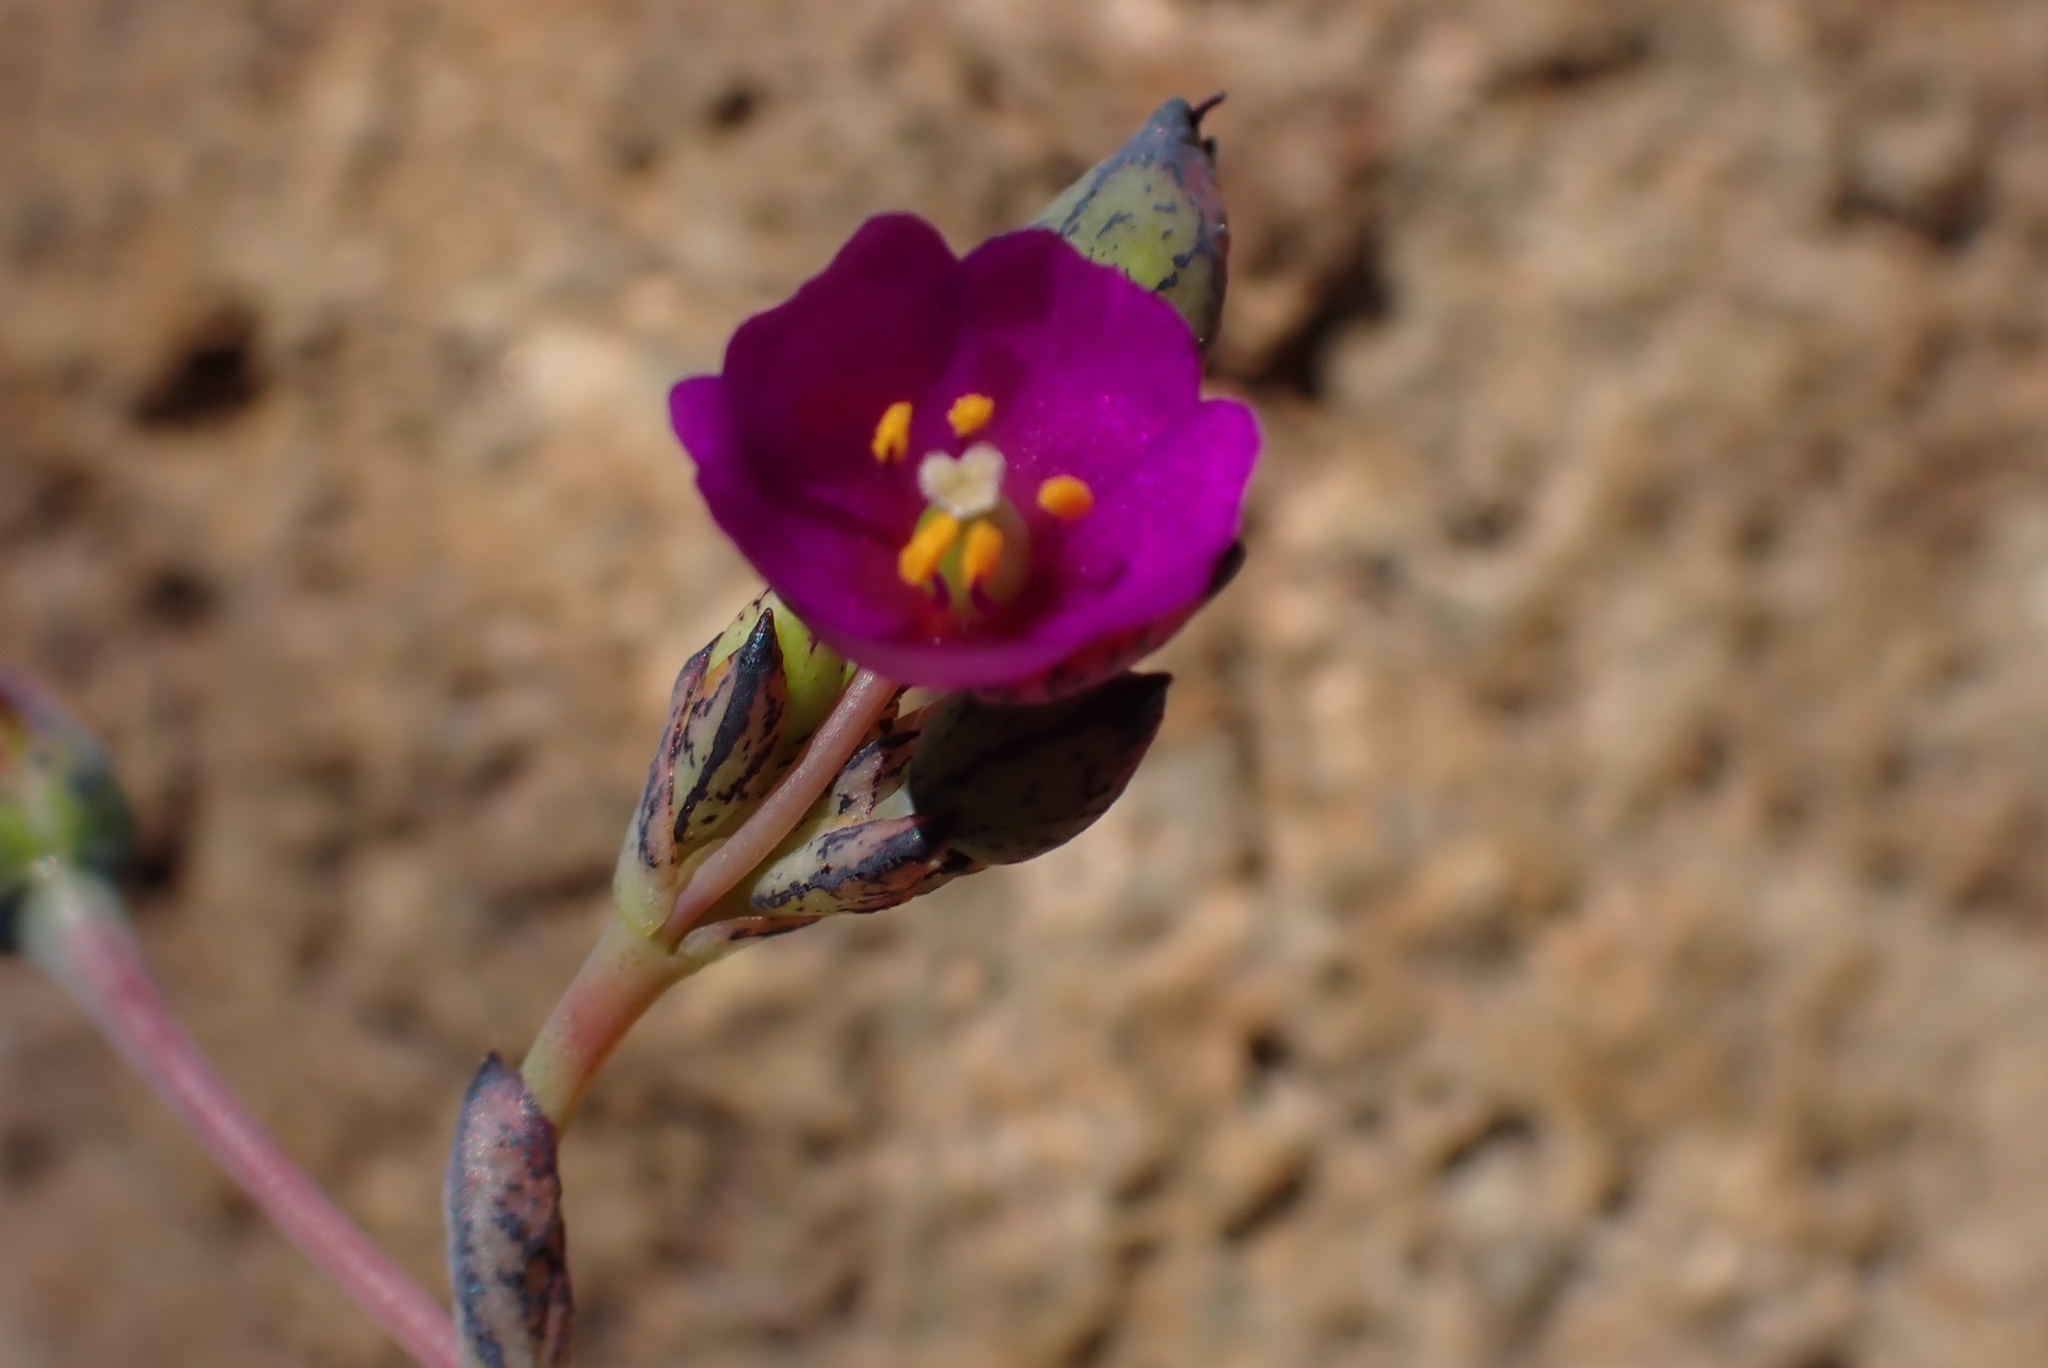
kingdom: Plantae
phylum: Tracheophyta
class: Magnoliopsida
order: Caryophyllales
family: Montiaceae
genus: Cistanthe
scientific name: Cistanthe maritima
